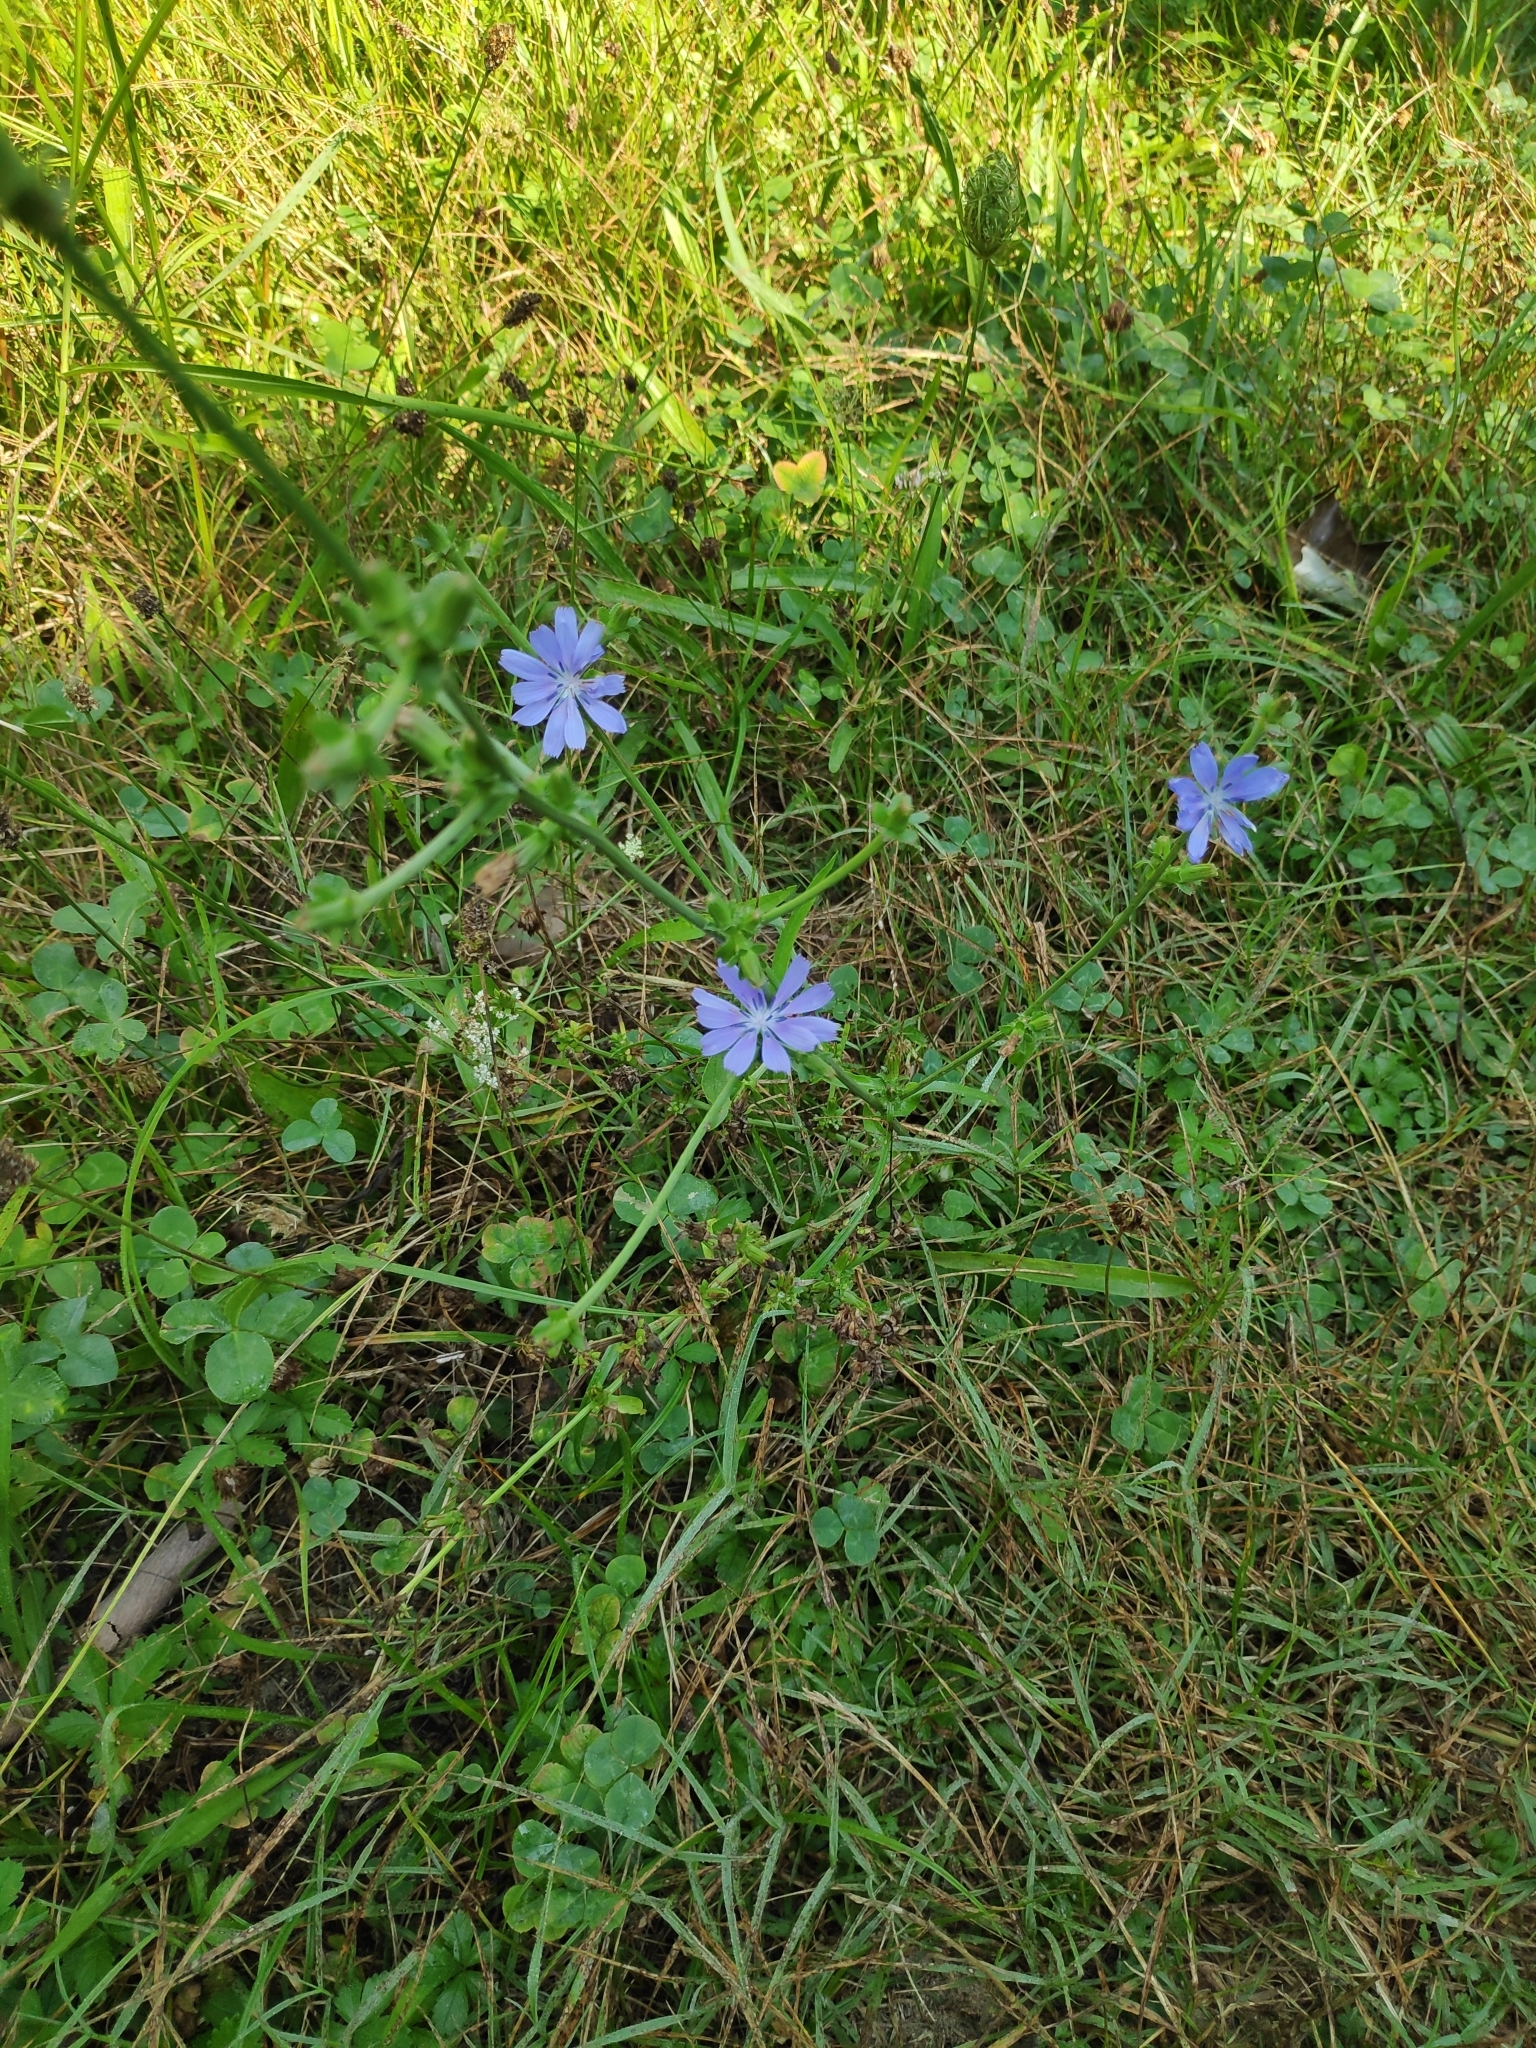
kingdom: Plantae
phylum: Tracheophyta
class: Magnoliopsida
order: Asterales
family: Asteraceae
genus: Cichorium
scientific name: Cichorium intybus
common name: Chicory
